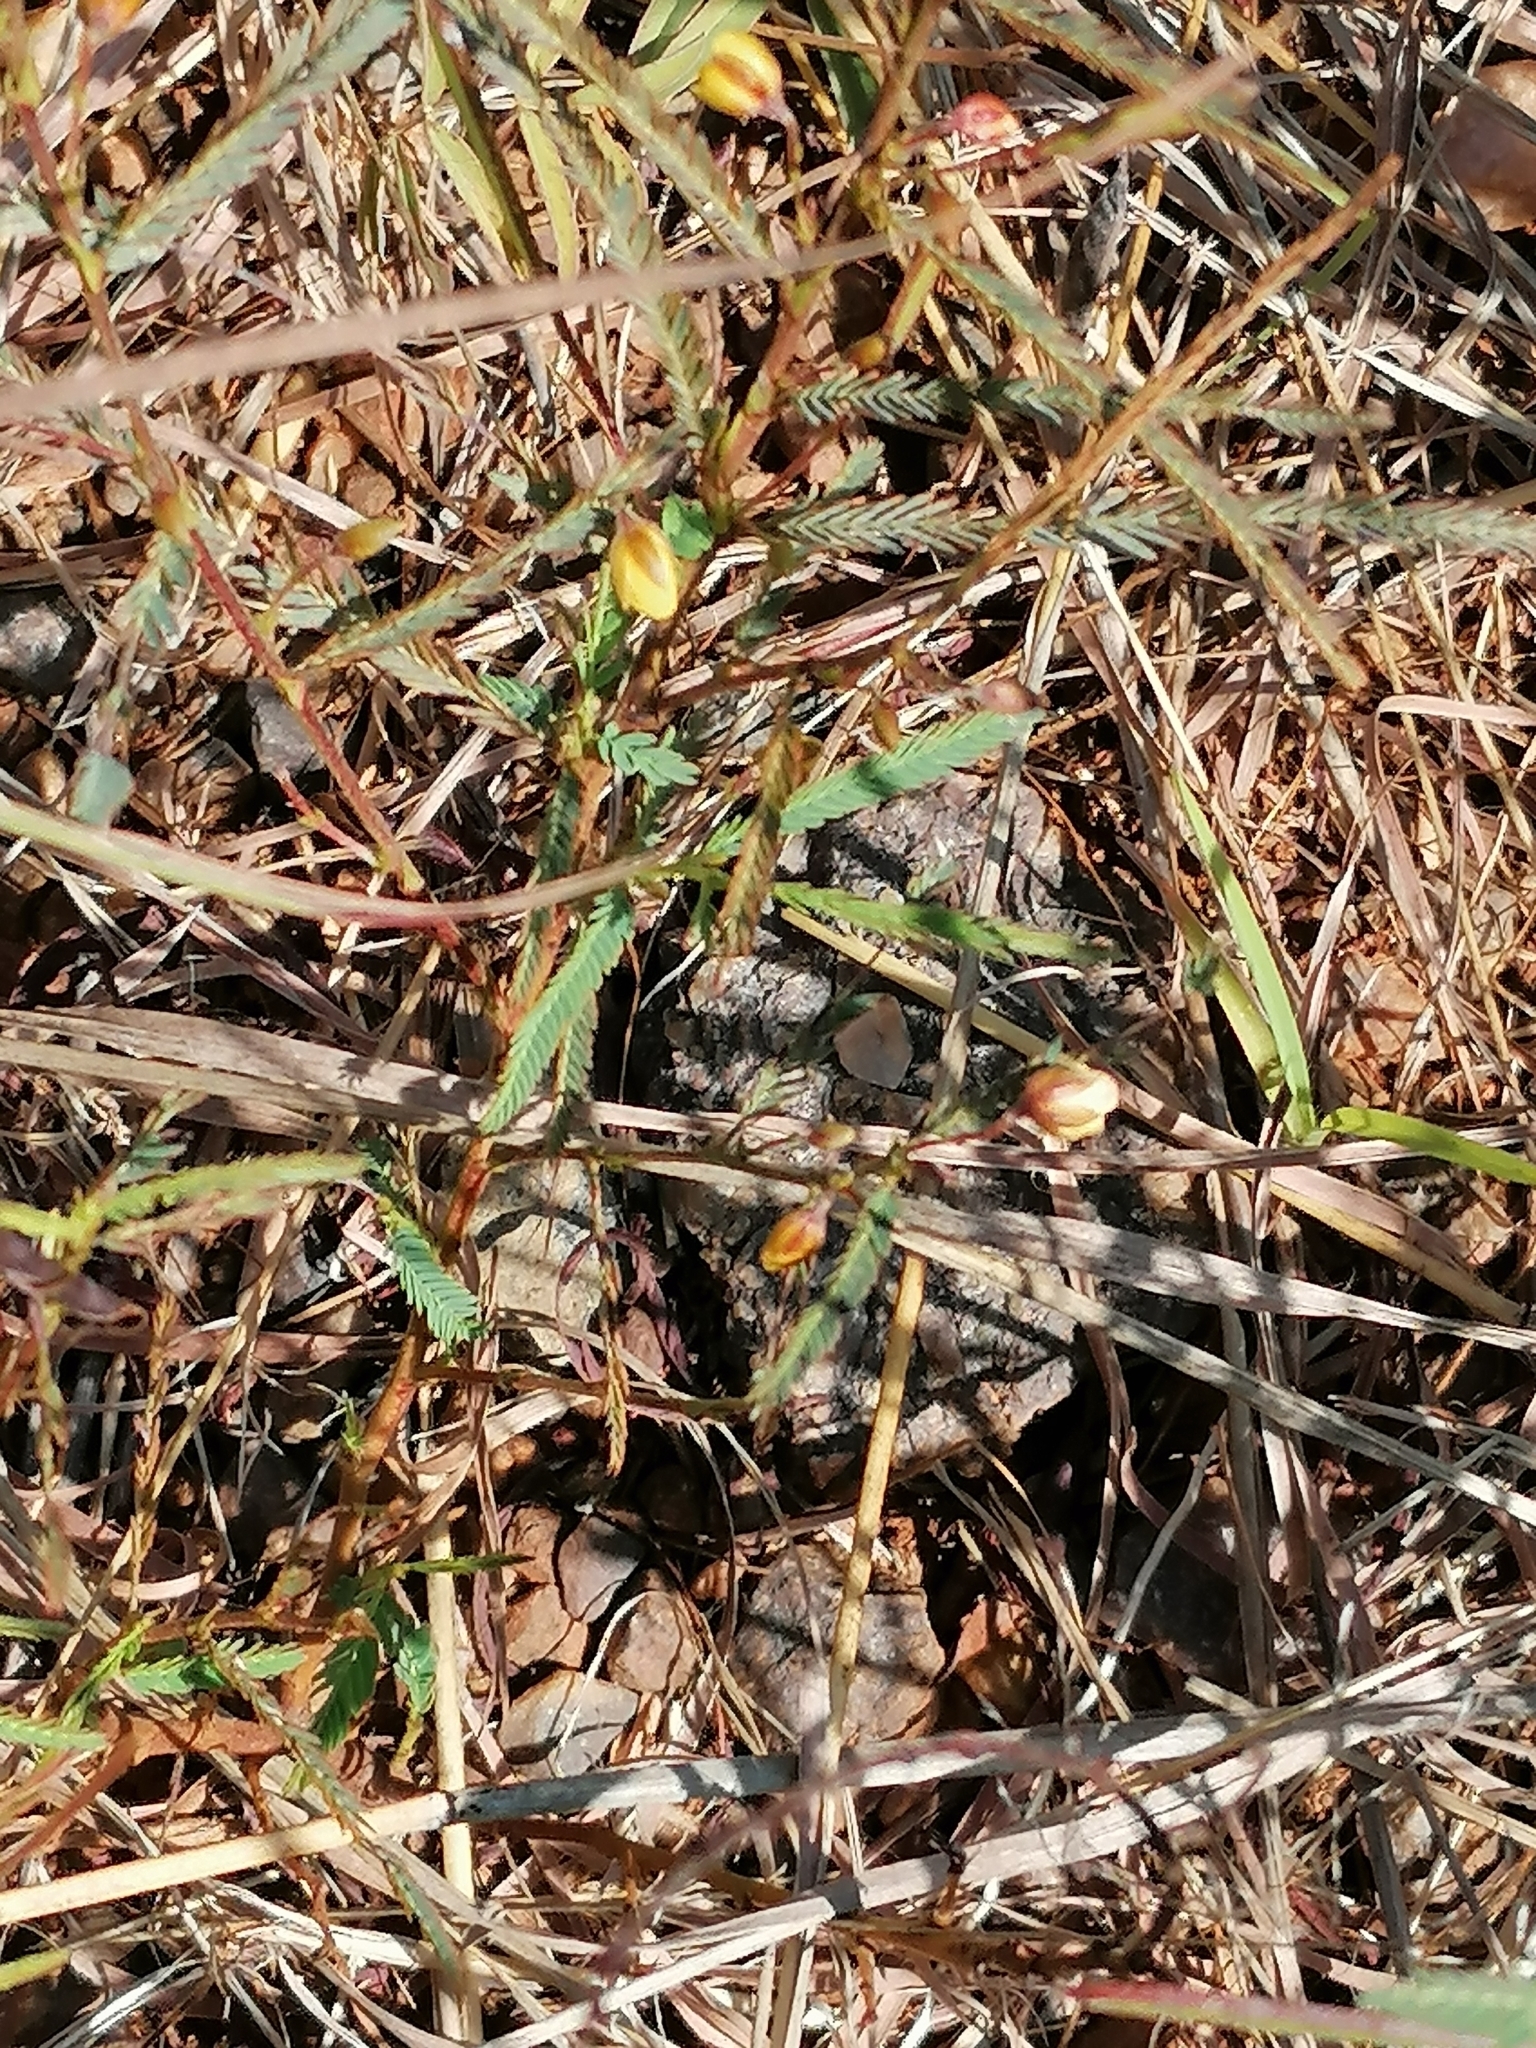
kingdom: Plantae
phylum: Tracheophyta
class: Magnoliopsida
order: Fabales
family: Fabaceae
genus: Chamaecrista
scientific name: Chamaecrista comosa
